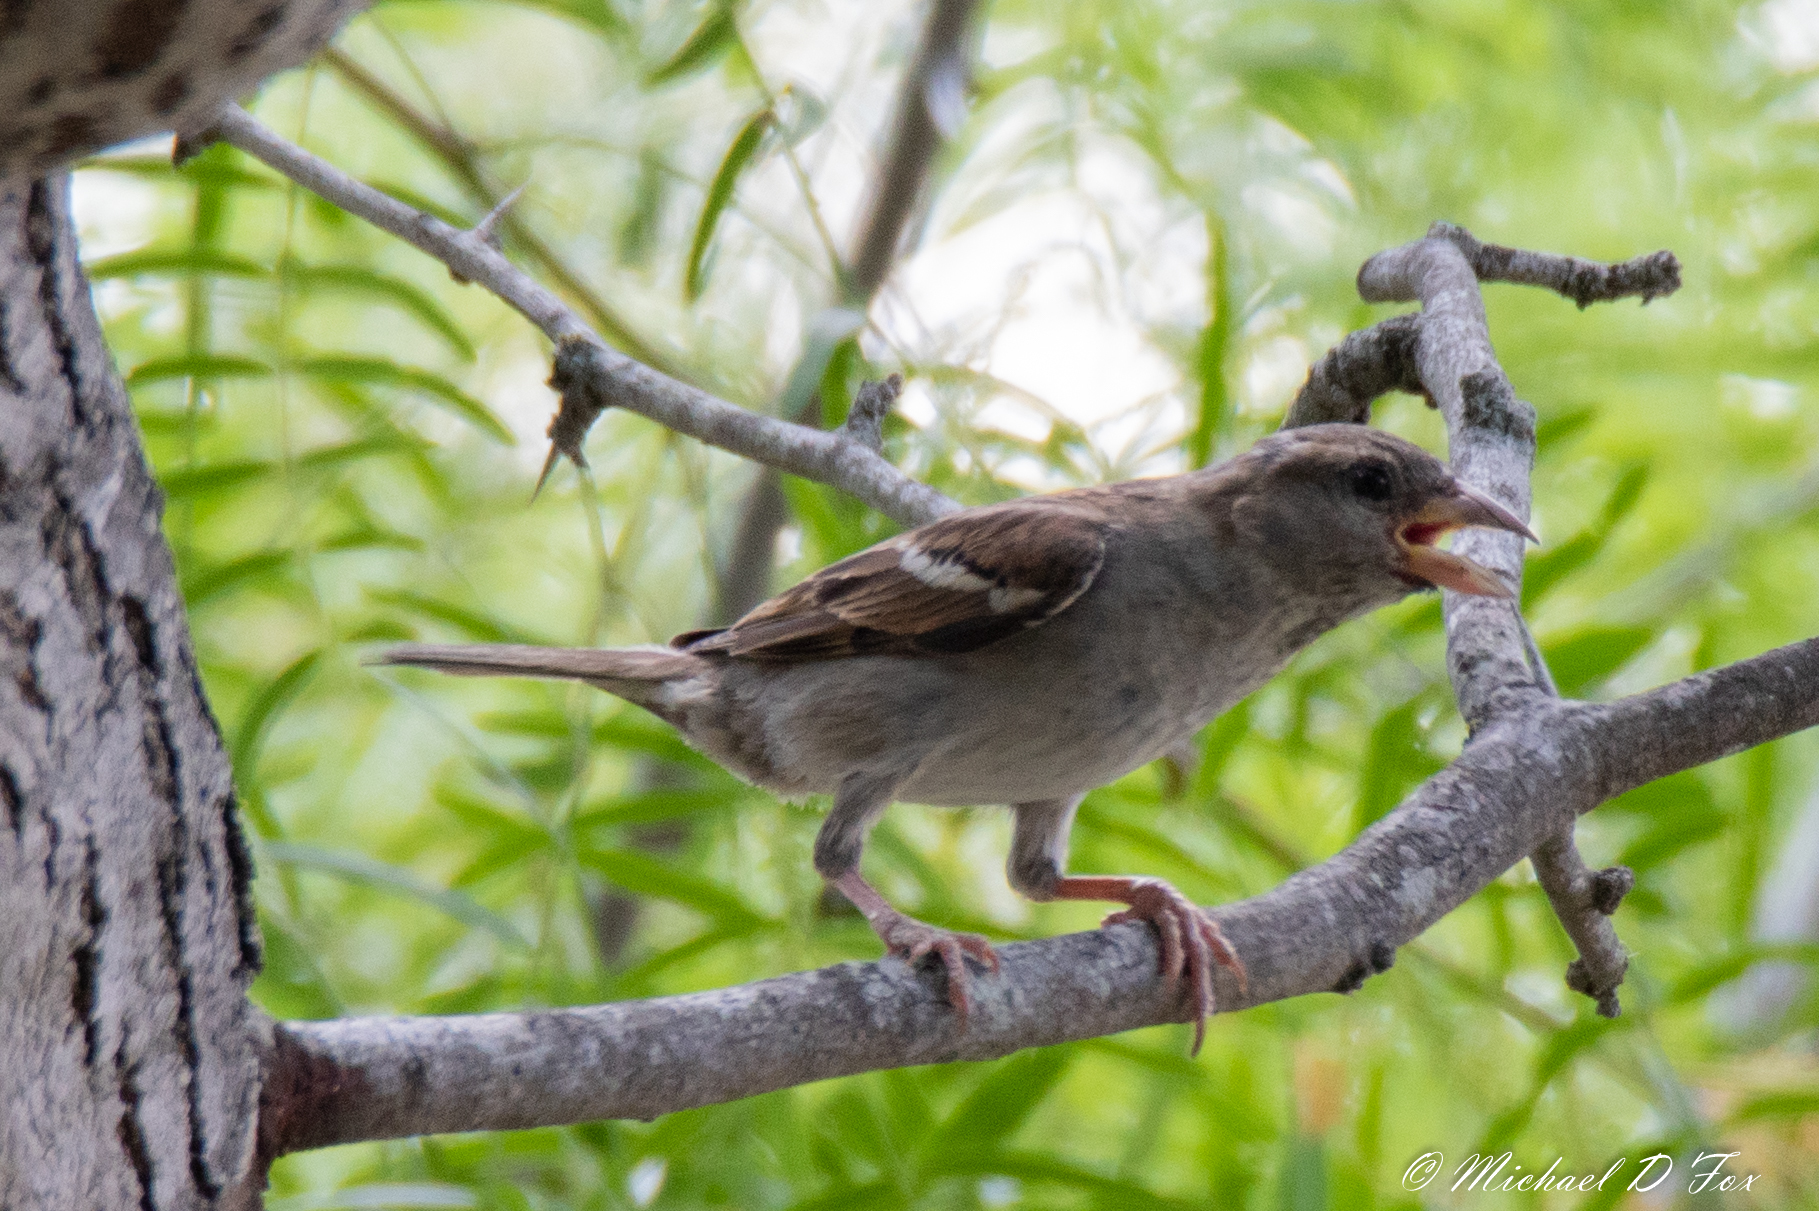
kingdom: Animalia
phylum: Chordata
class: Aves
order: Passeriformes
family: Passeridae
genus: Passer
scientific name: Passer domesticus
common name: House sparrow
